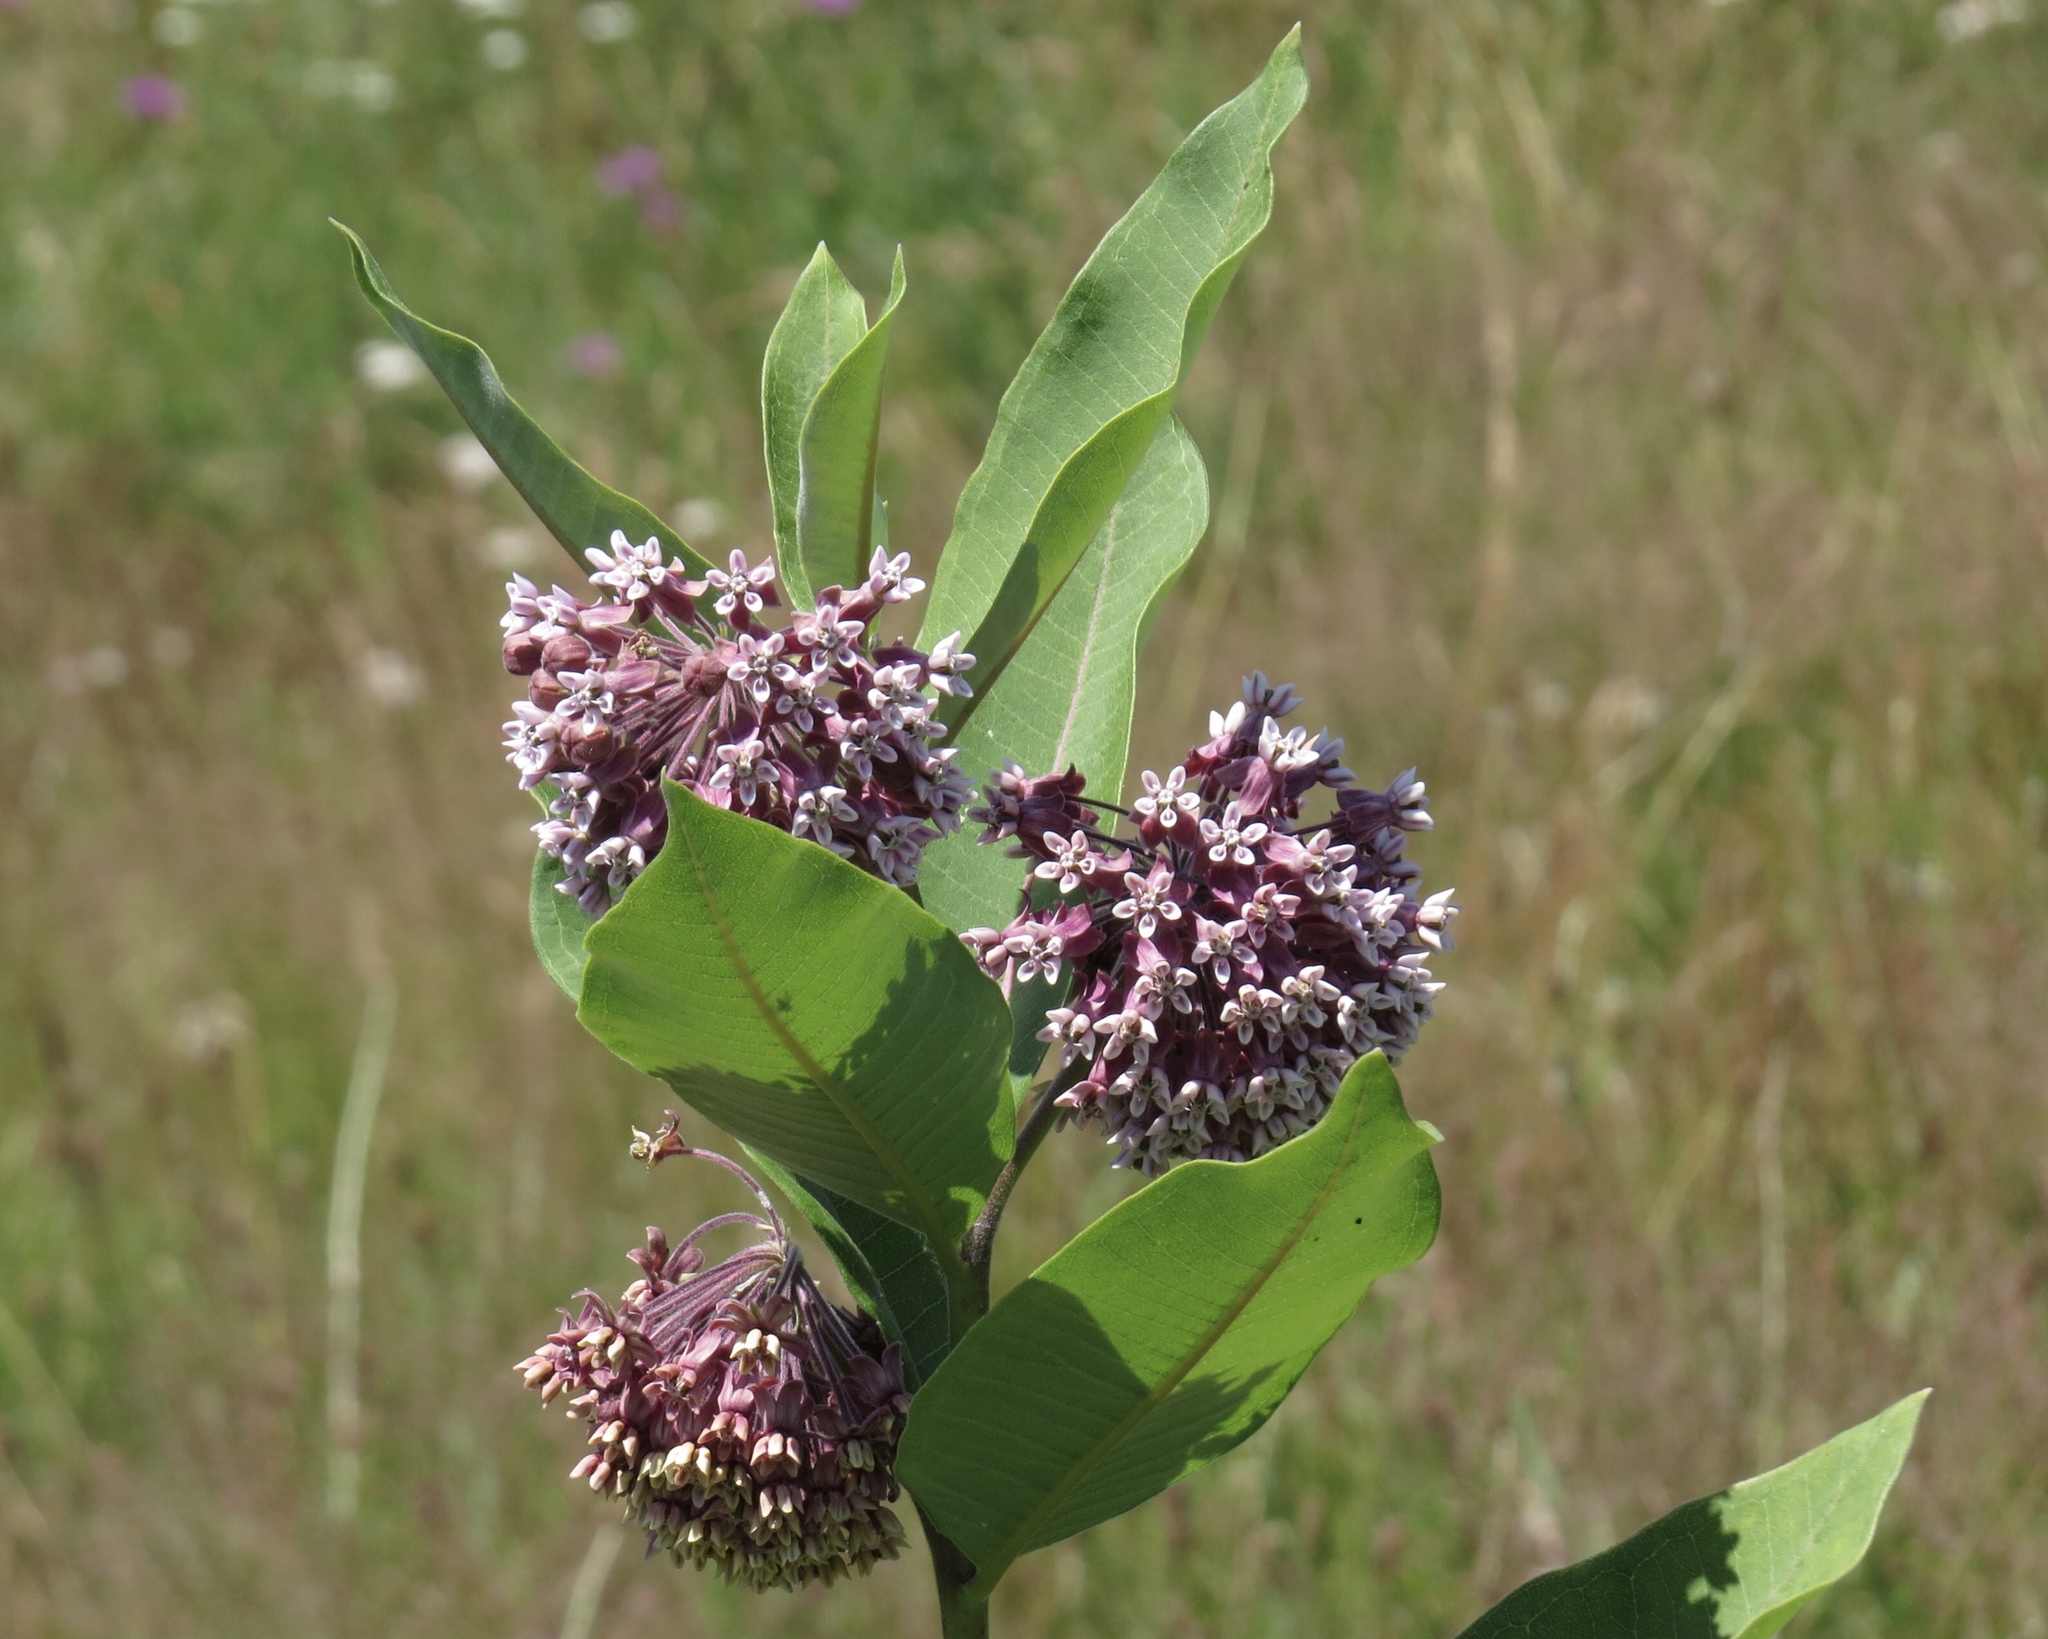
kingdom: Plantae
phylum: Tracheophyta
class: Magnoliopsida
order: Gentianales
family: Apocynaceae
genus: Asclepias
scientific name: Asclepias syriaca
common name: Common milkweed
